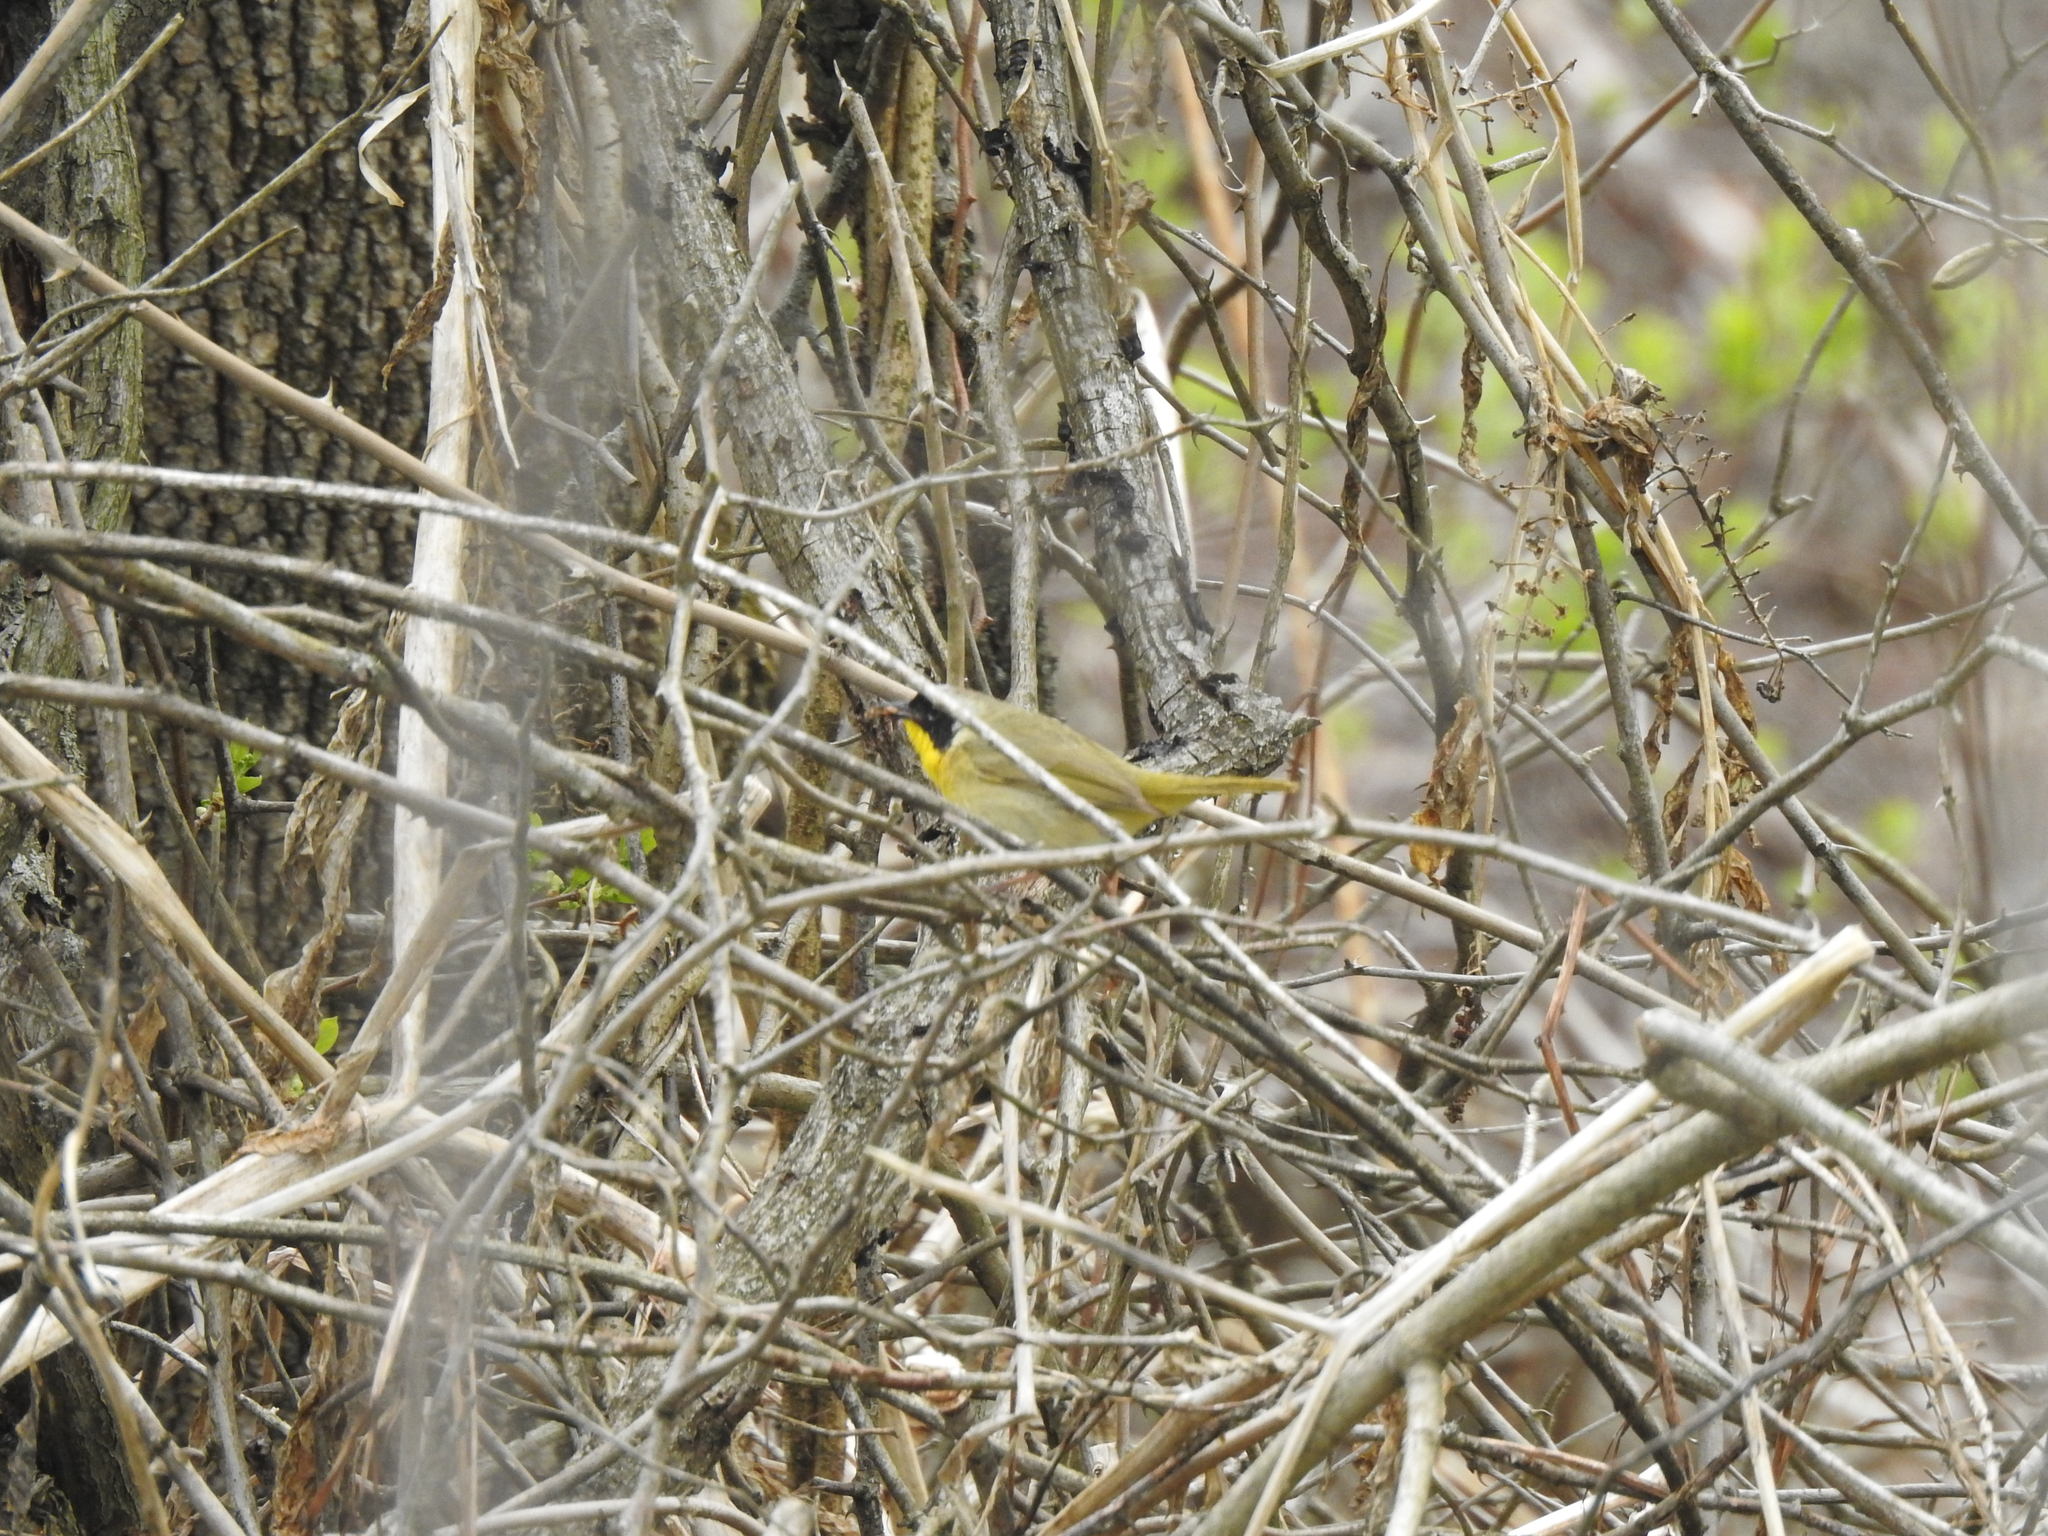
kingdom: Animalia
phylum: Chordata
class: Aves
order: Passeriformes
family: Parulidae
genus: Geothlypis
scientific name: Geothlypis trichas
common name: Common yellowthroat
